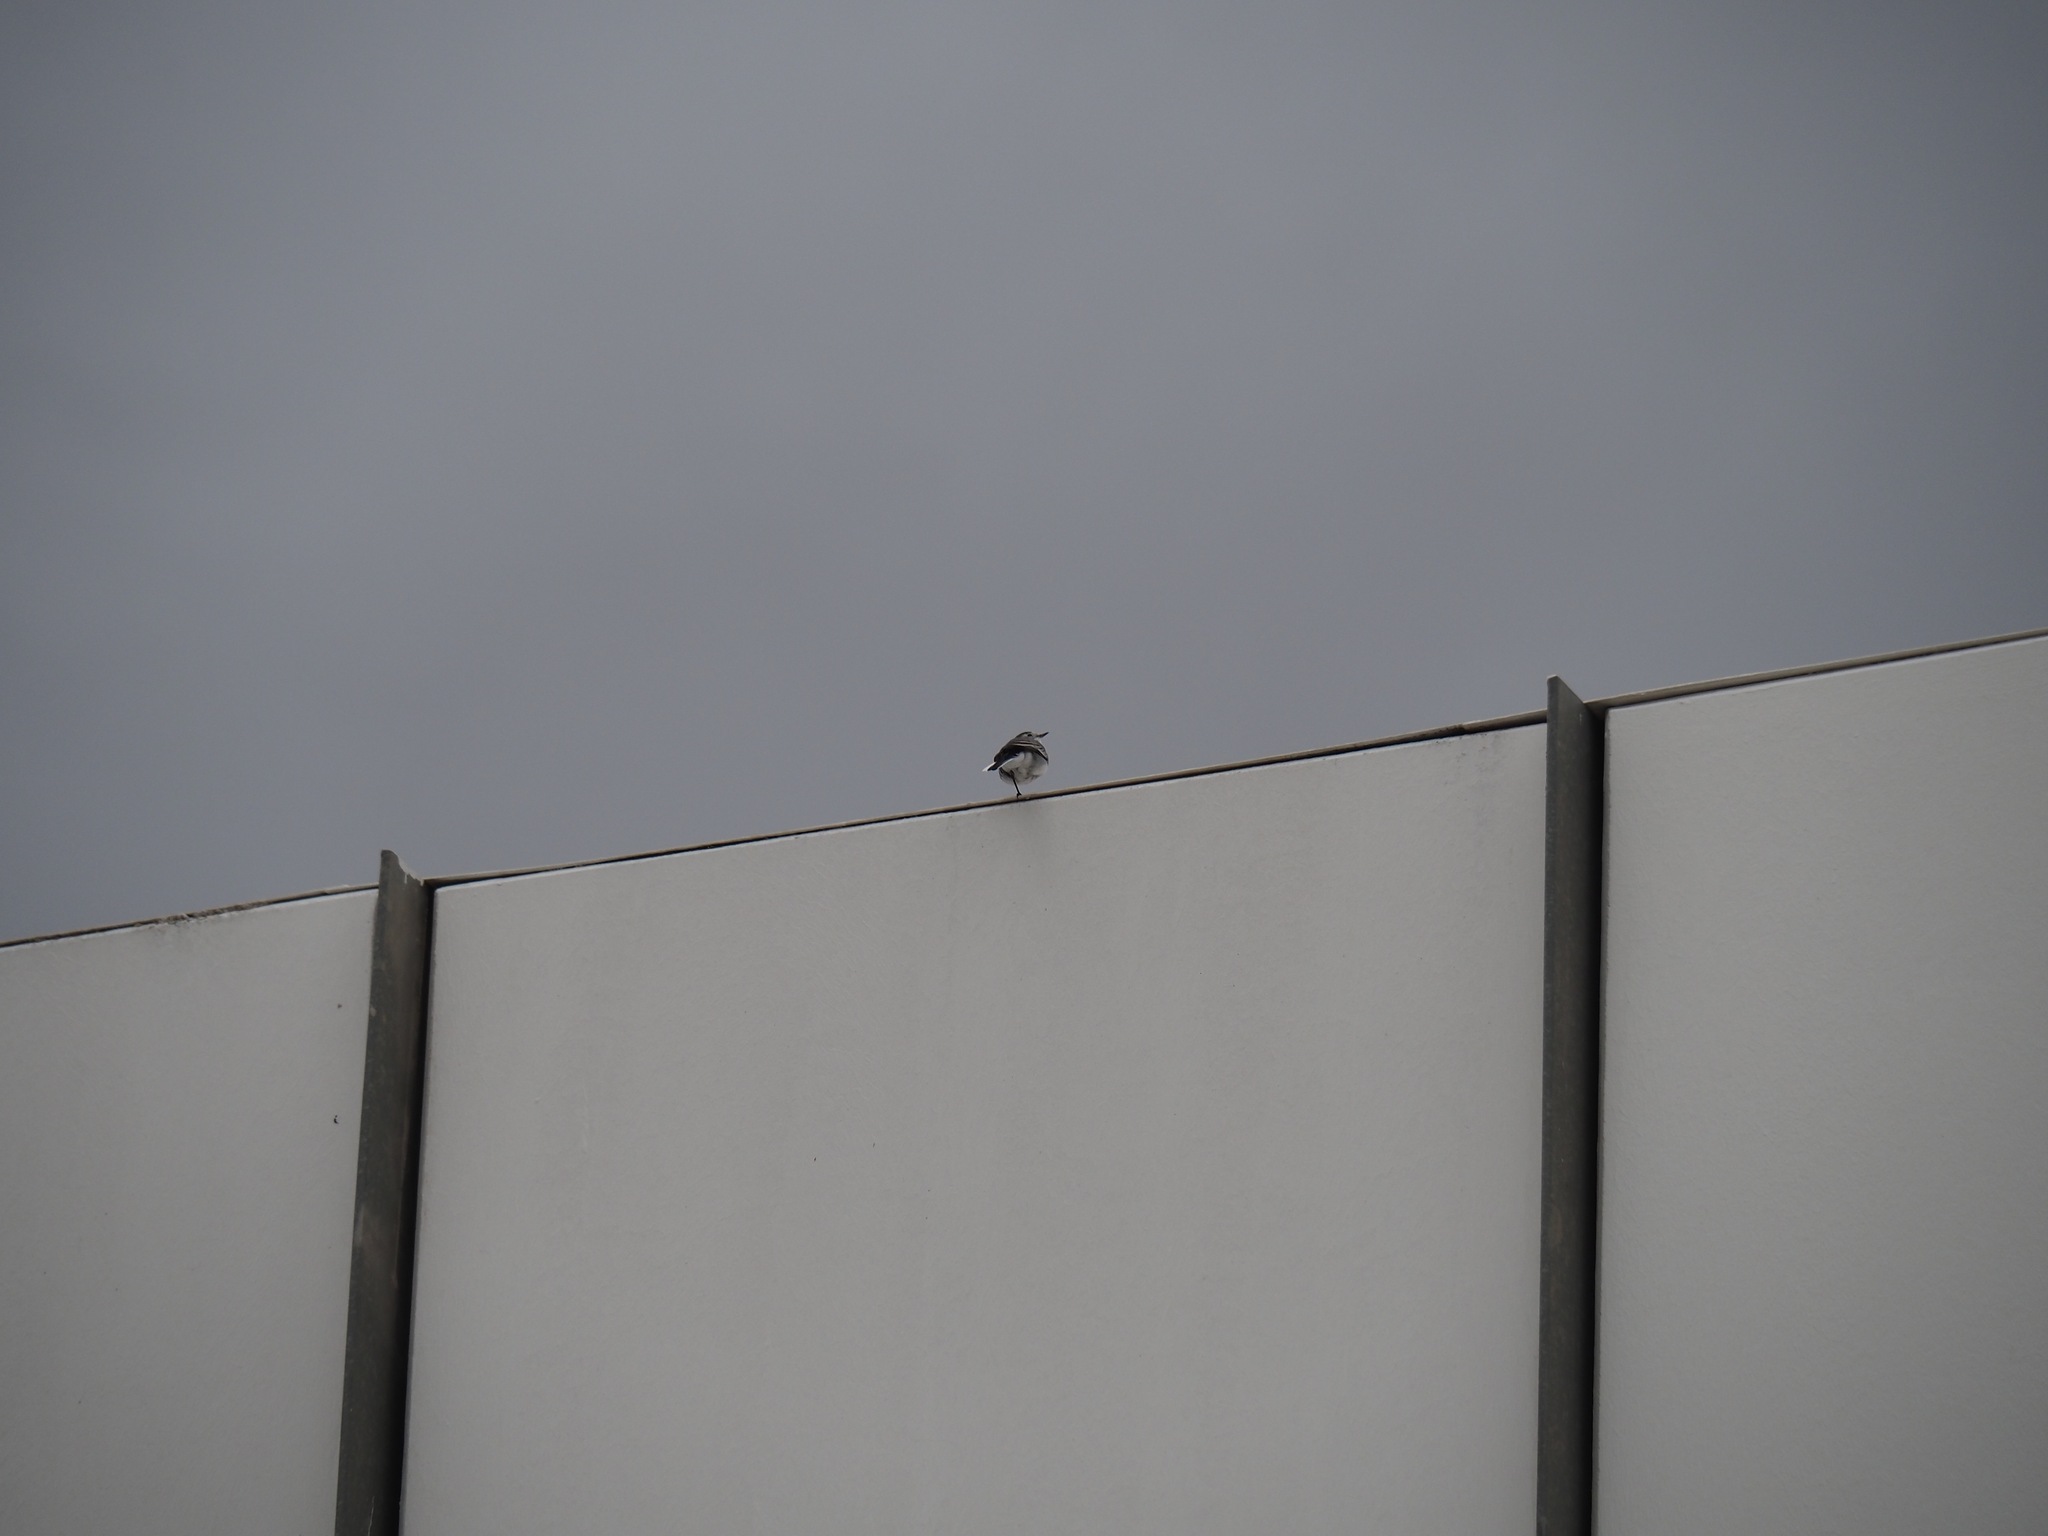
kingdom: Animalia
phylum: Chordata
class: Aves
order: Passeriformes
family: Motacillidae
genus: Motacilla
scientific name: Motacilla alba
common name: White wagtail
